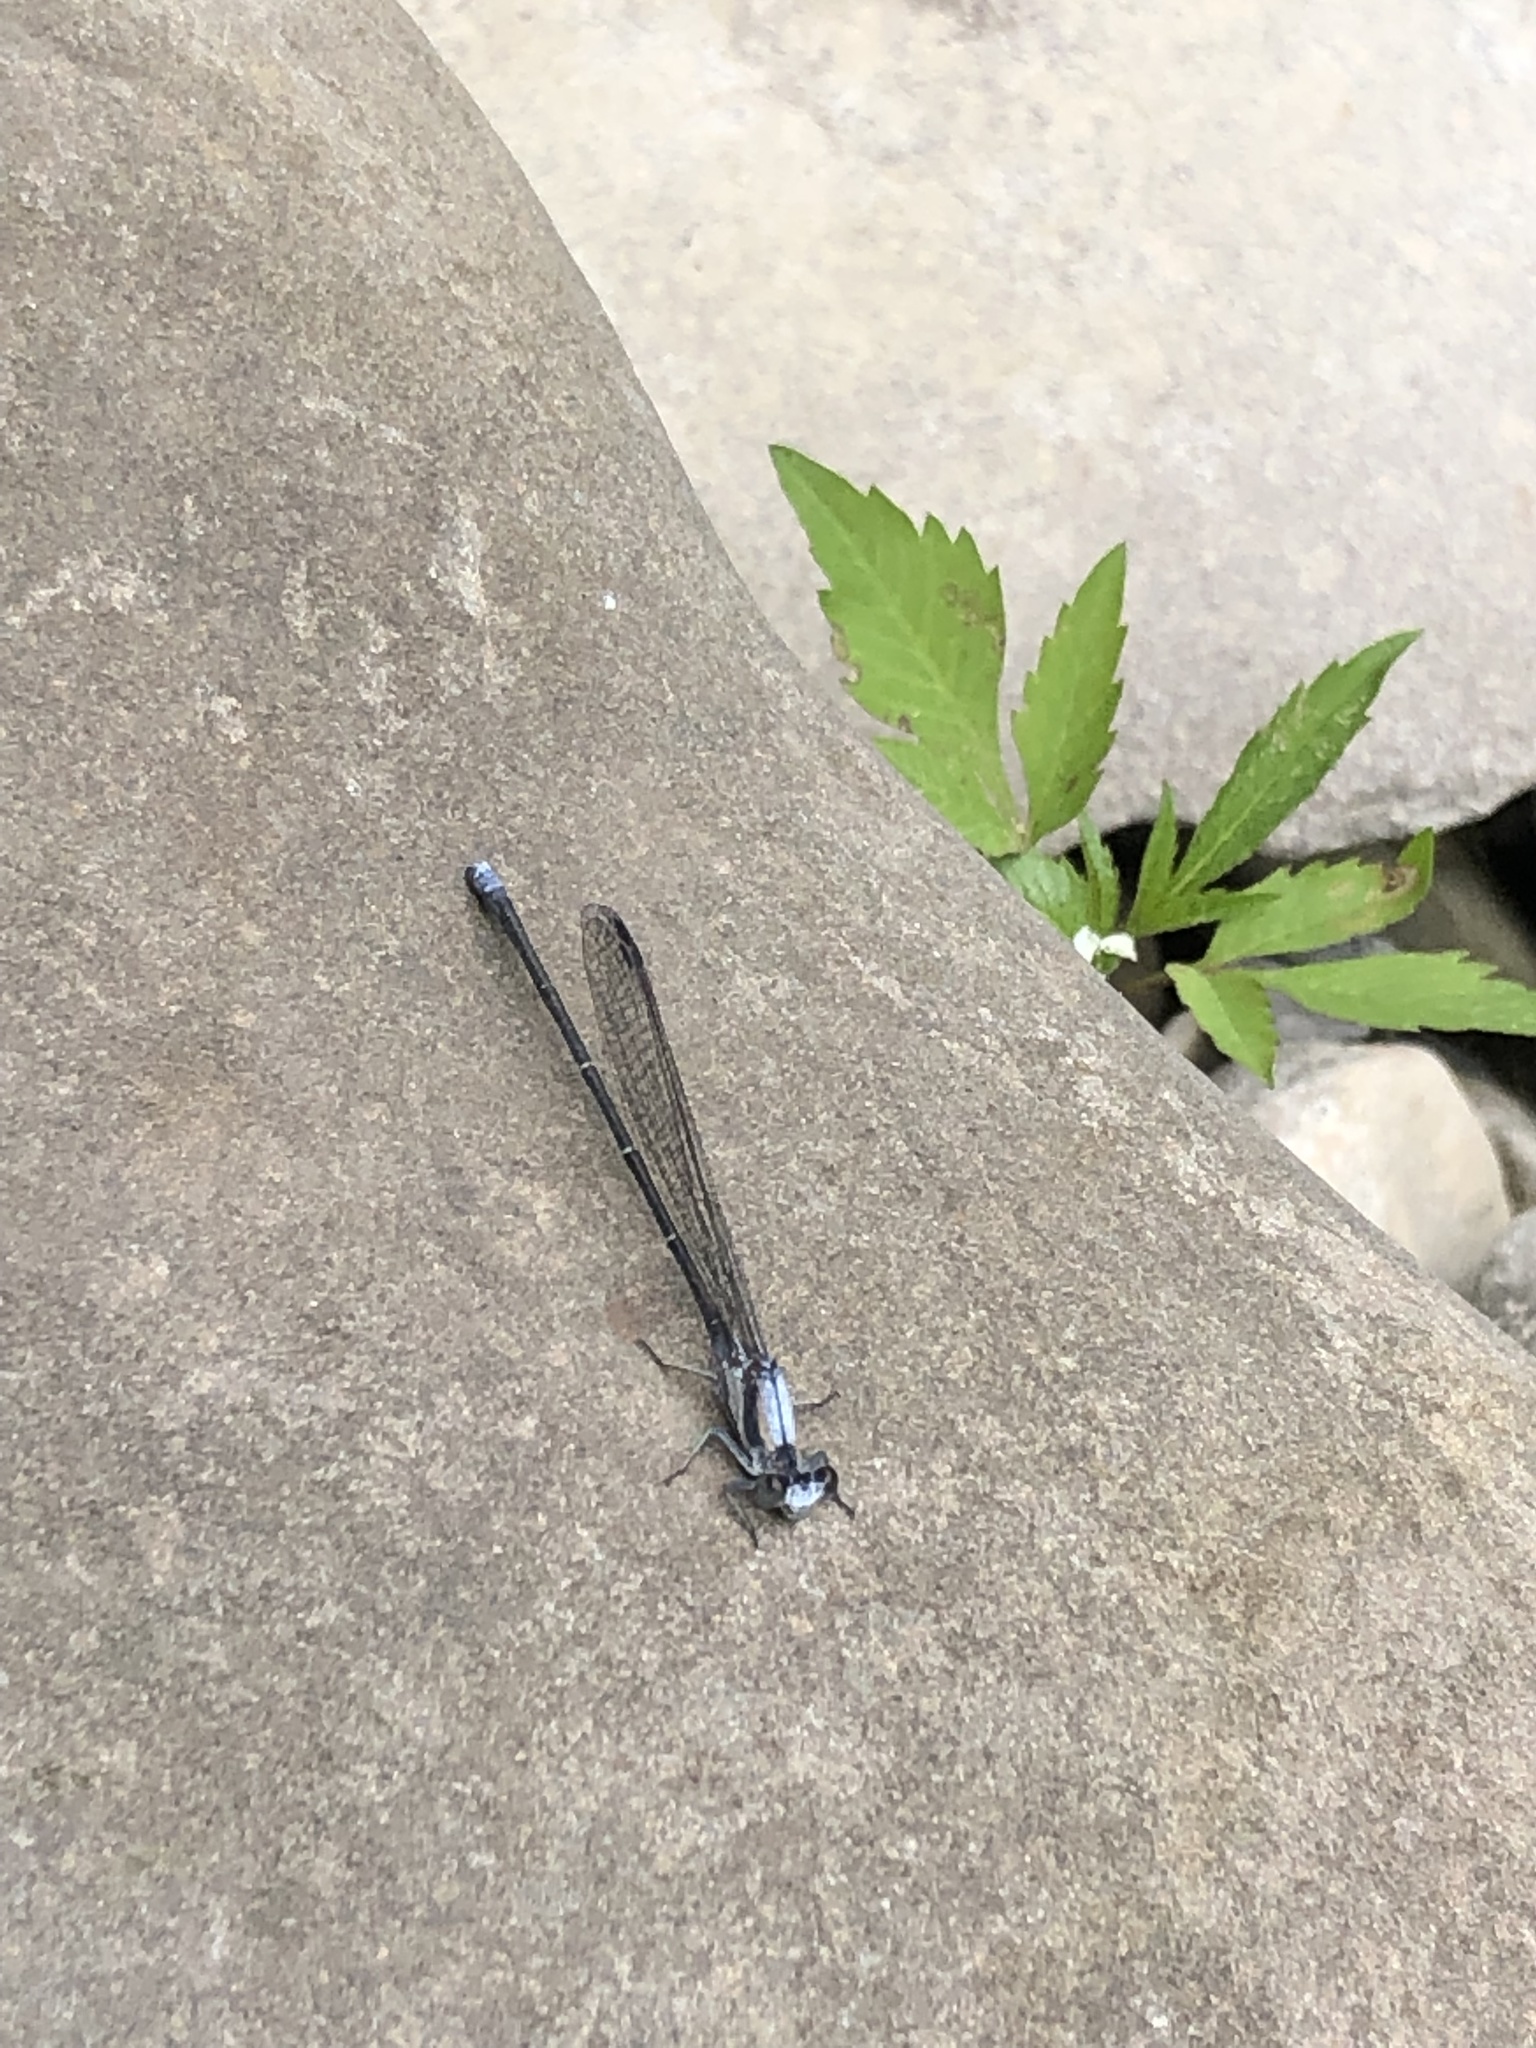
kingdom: Animalia
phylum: Arthropoda
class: Insecta
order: Odonata
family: Coenagrionidae
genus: Argia
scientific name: Argia moesta
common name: Powdered dancer
